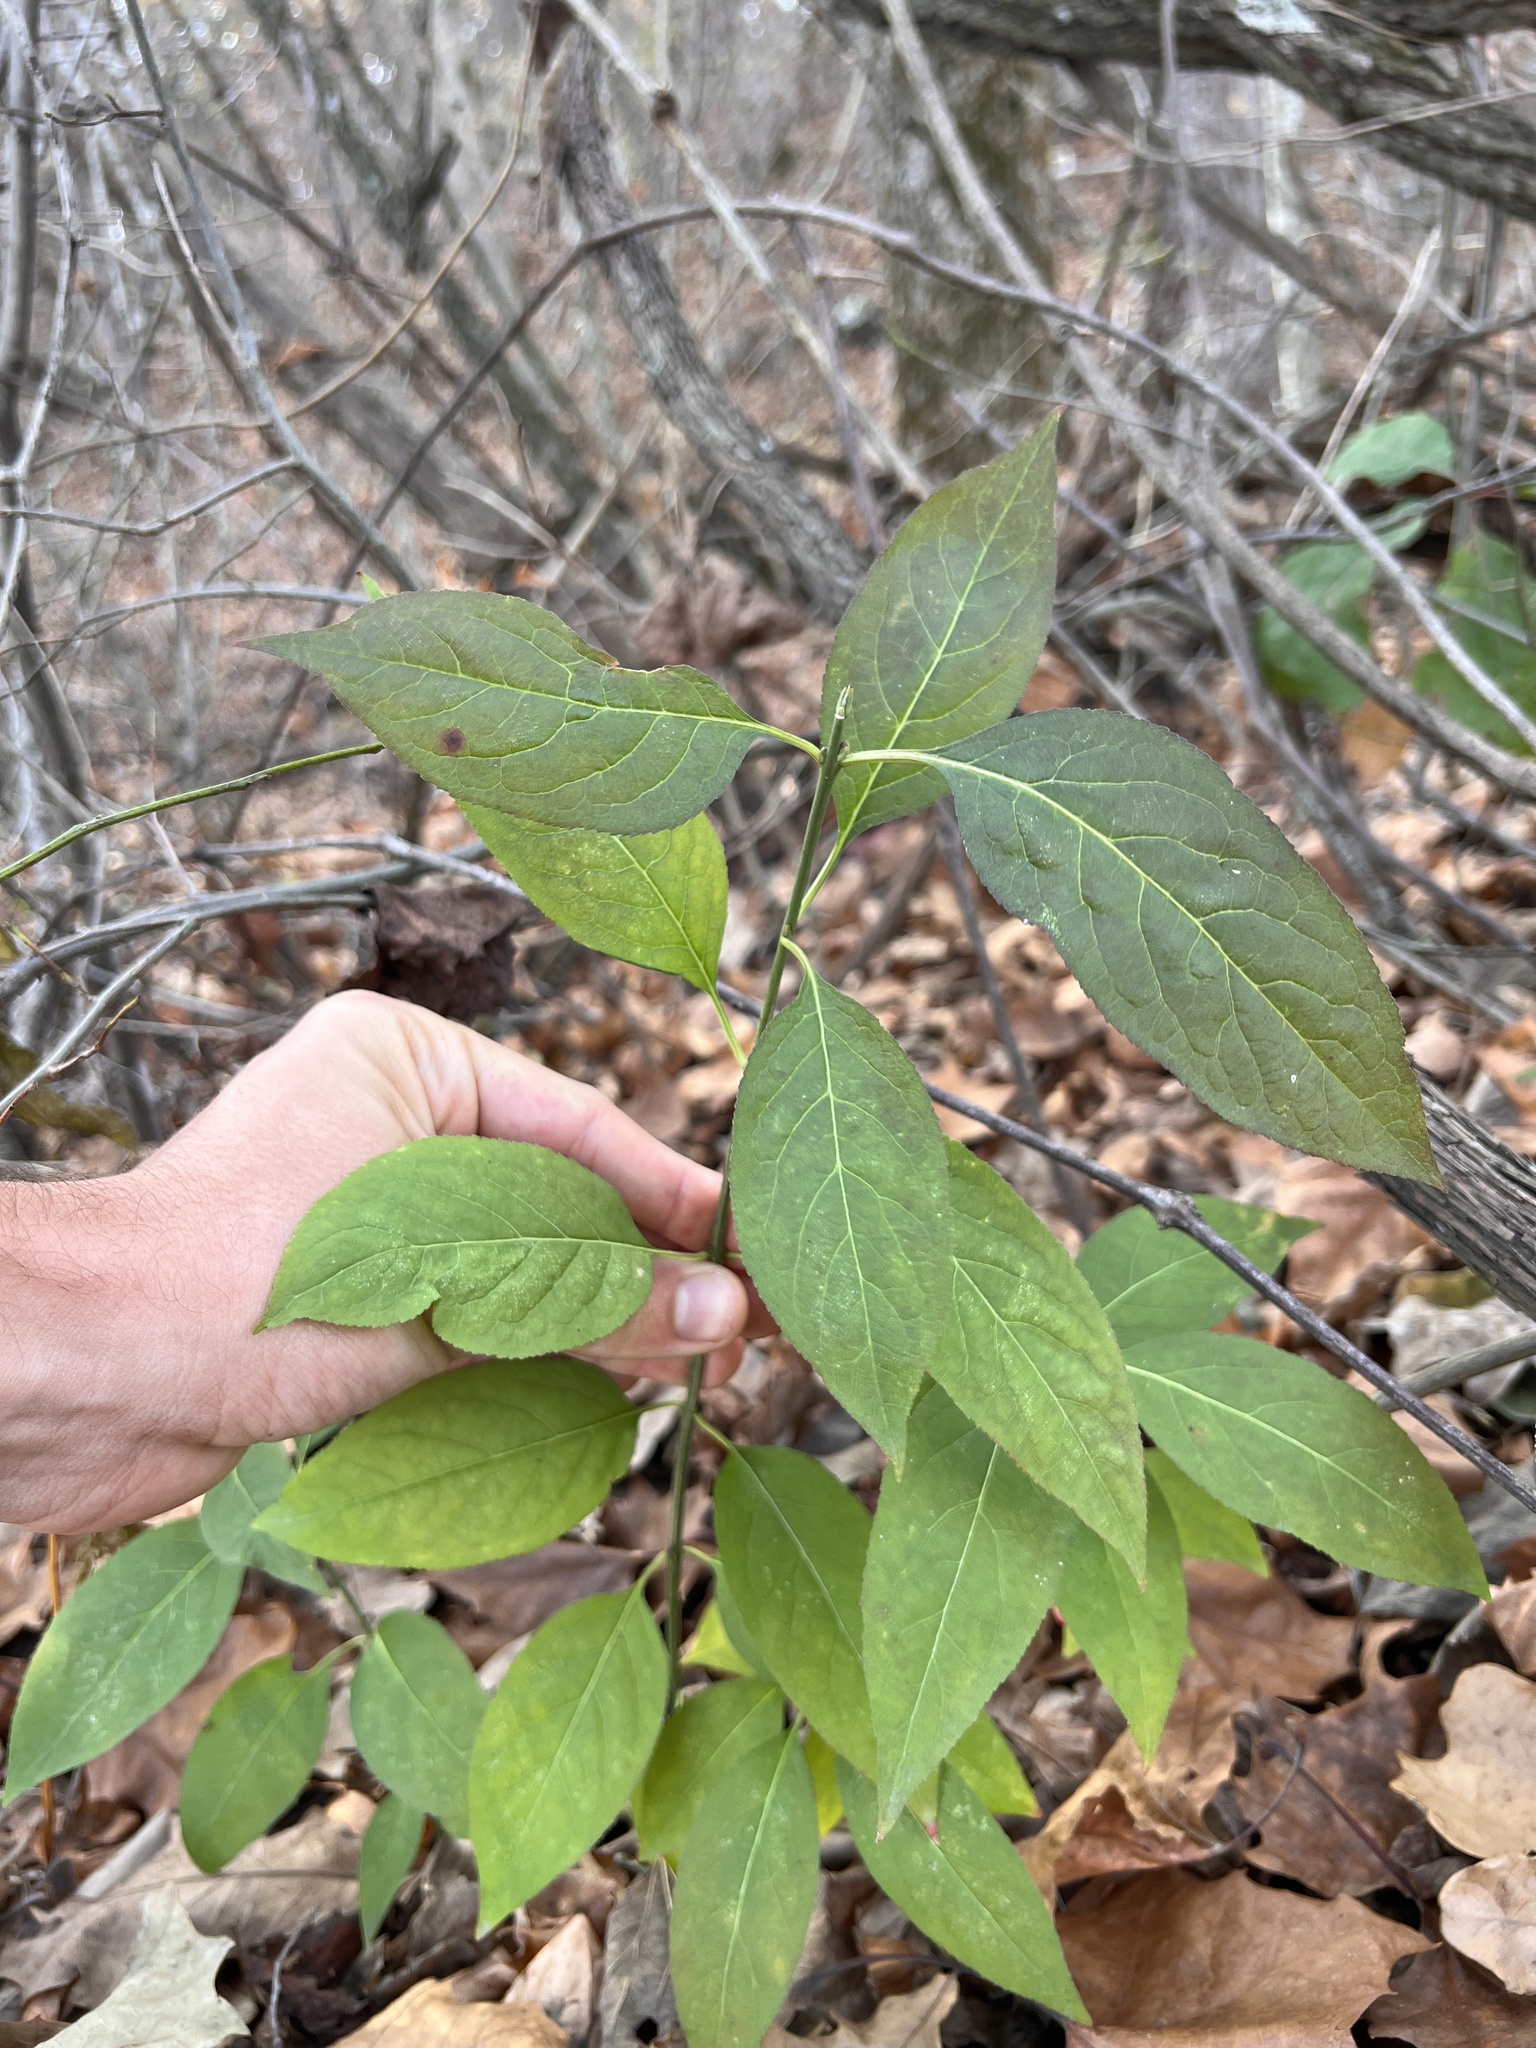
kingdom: Plantae
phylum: Tracheophyta
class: Magnoliopsida
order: Celastrales
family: Celastraceae
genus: Euonymus
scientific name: Euonymus atropurpureus
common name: Eastern wahoo
